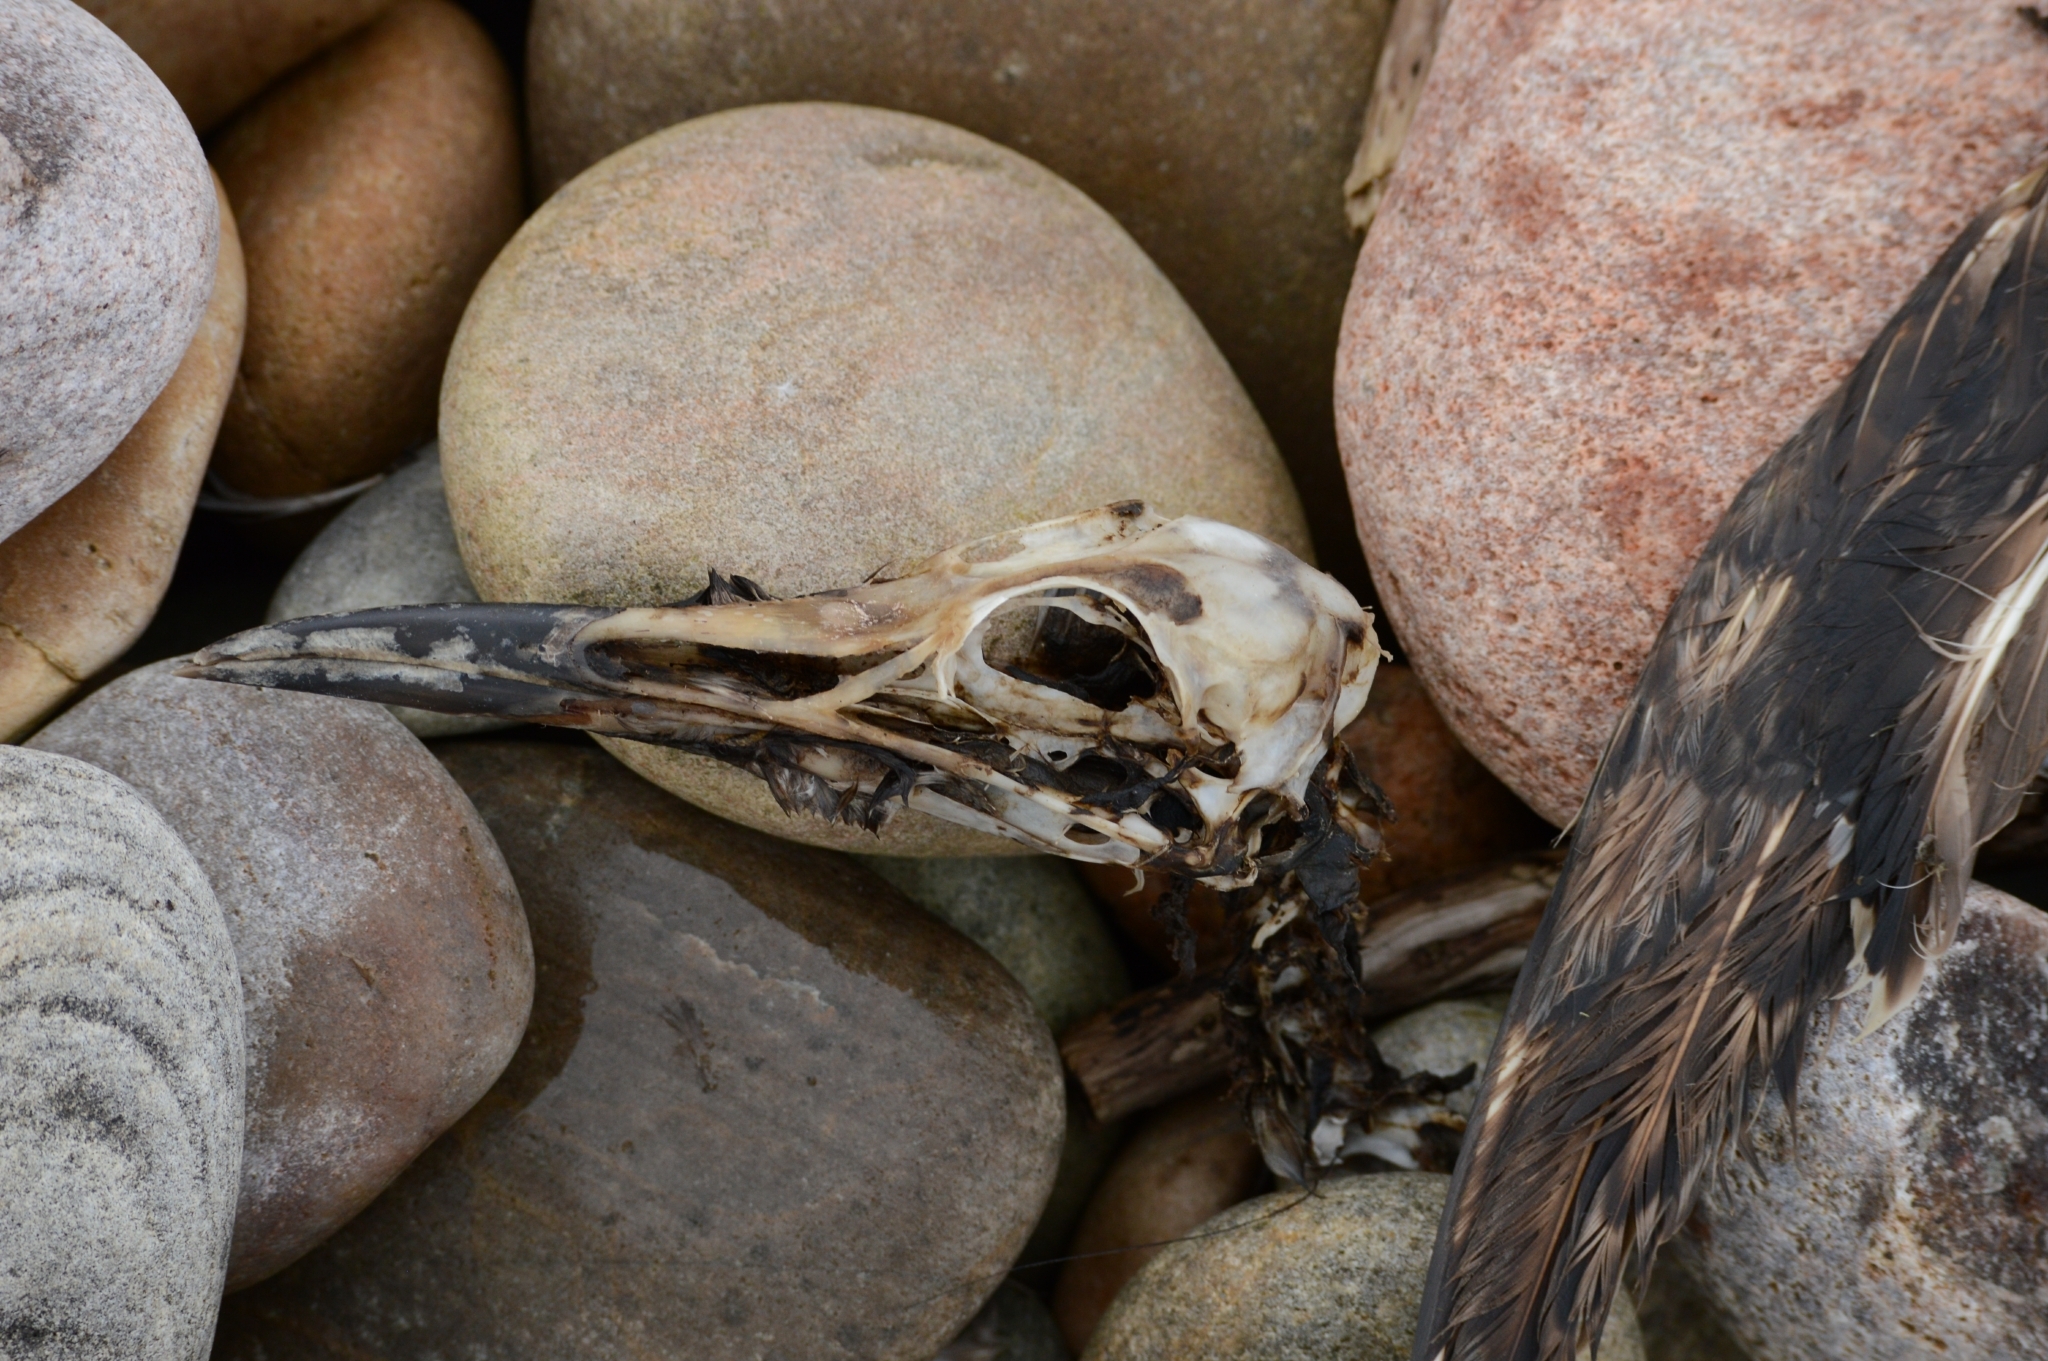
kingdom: Animalia
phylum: Chordata
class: Aves
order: Charadriiformes
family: Alcidae
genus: Uria
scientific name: Uria aalge
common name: Common murre
